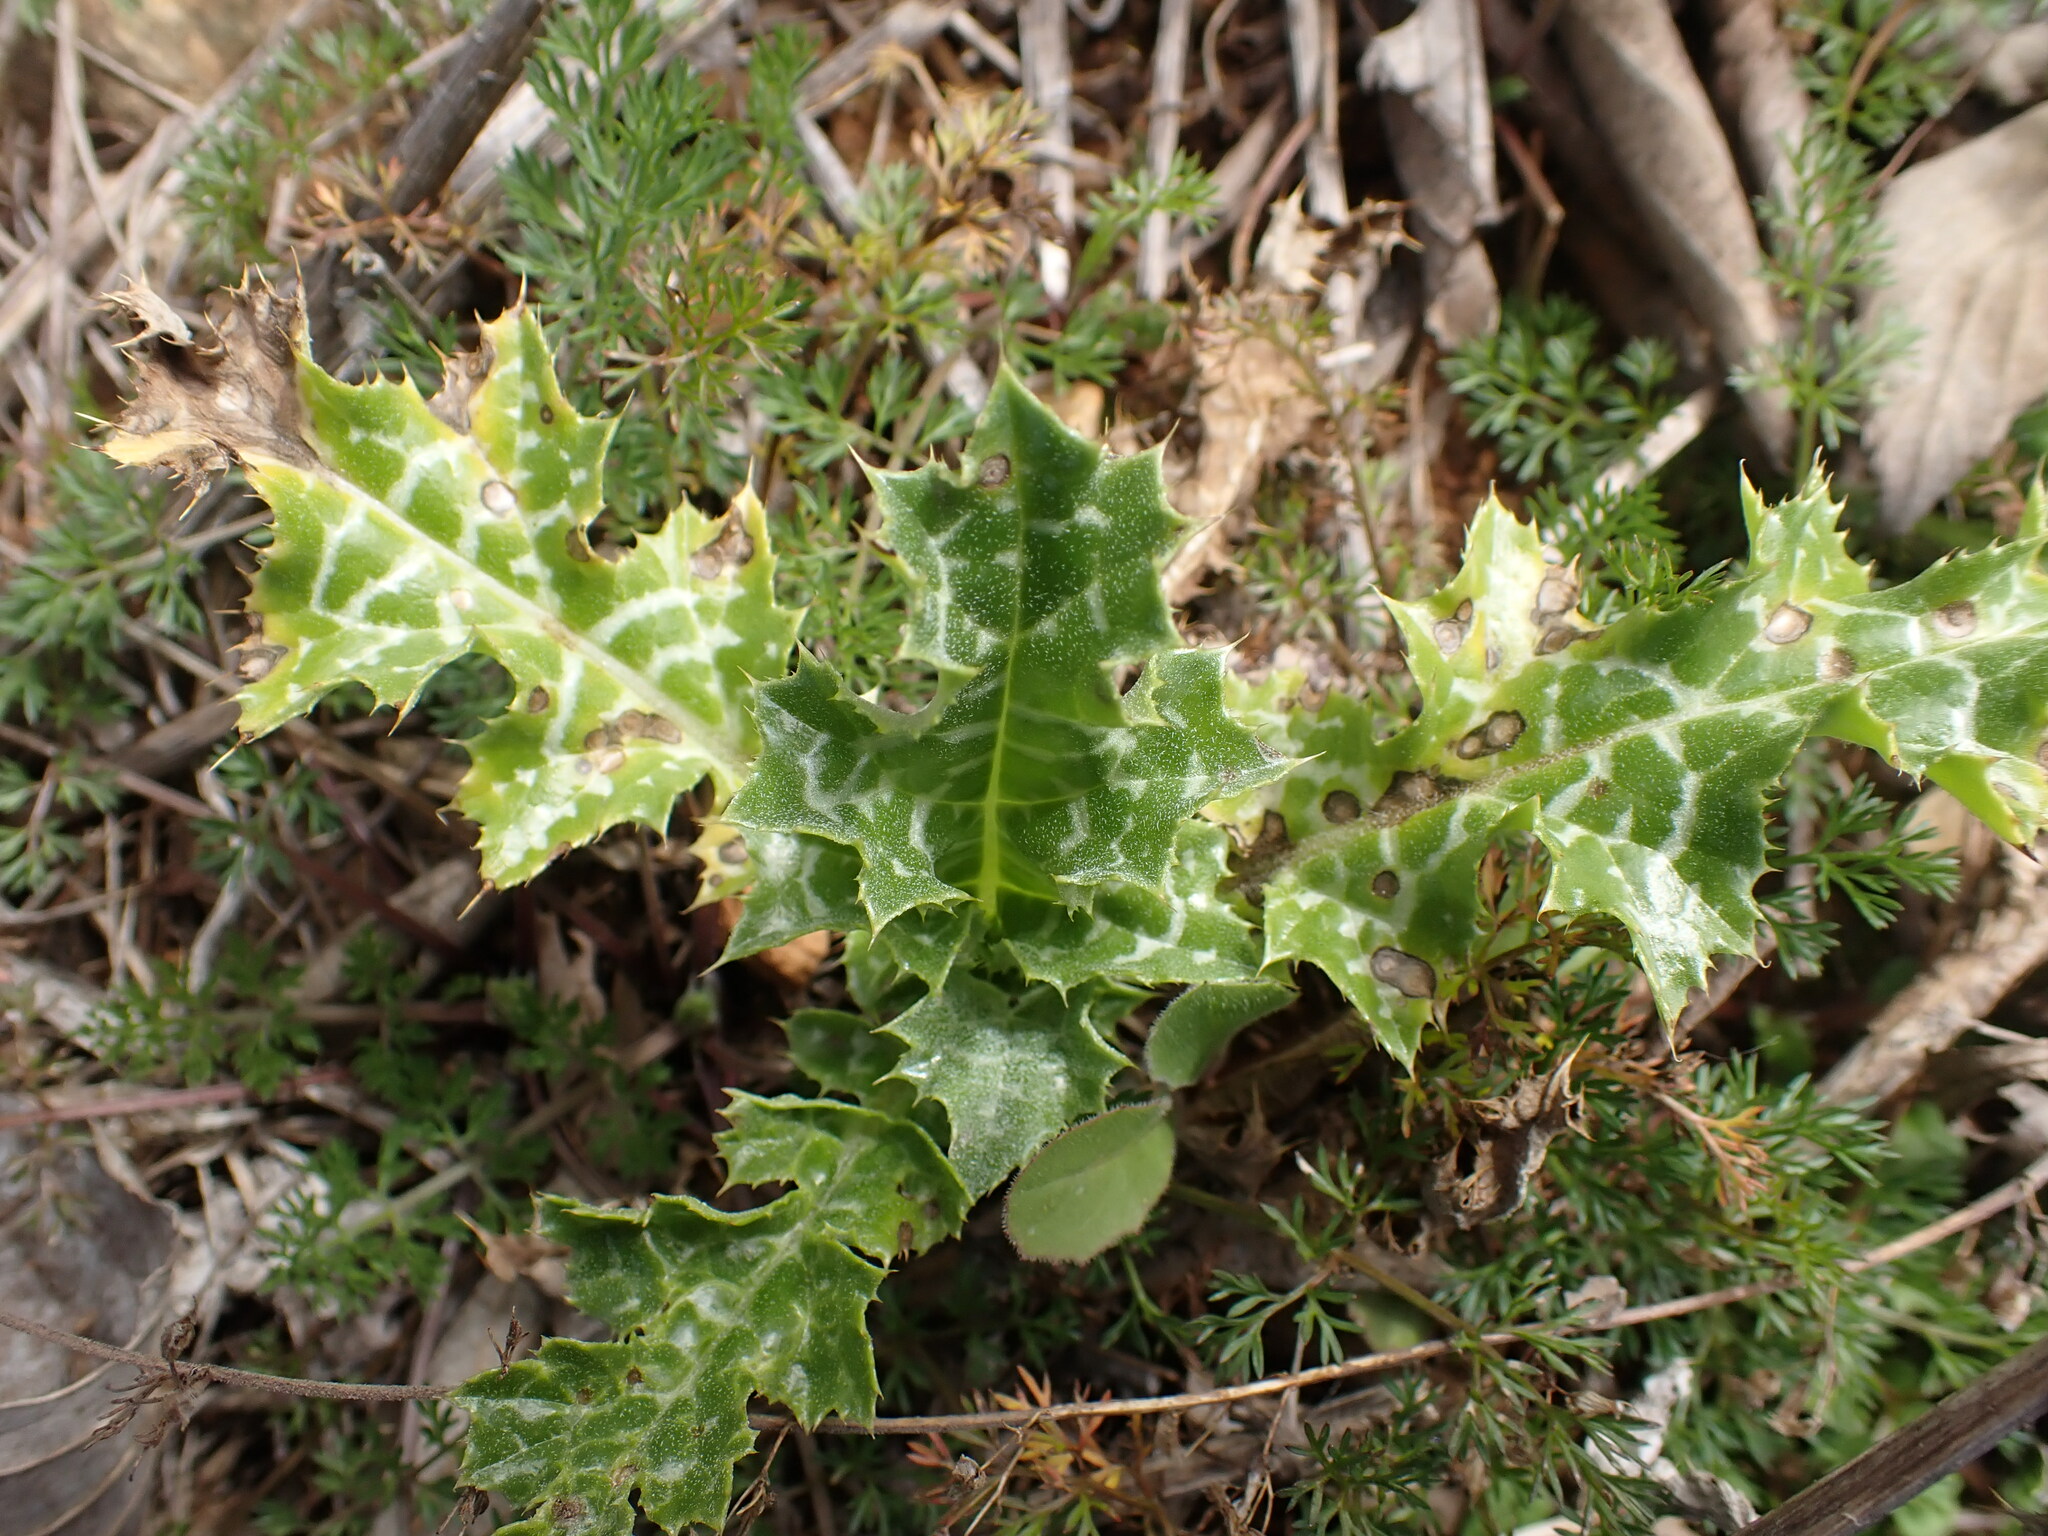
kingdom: Plantae
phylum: Tracheophyta
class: Magnoliopsida
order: Asterales
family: Asteraceae
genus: Silybum
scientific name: Silybum marianum
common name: Milk thistle
